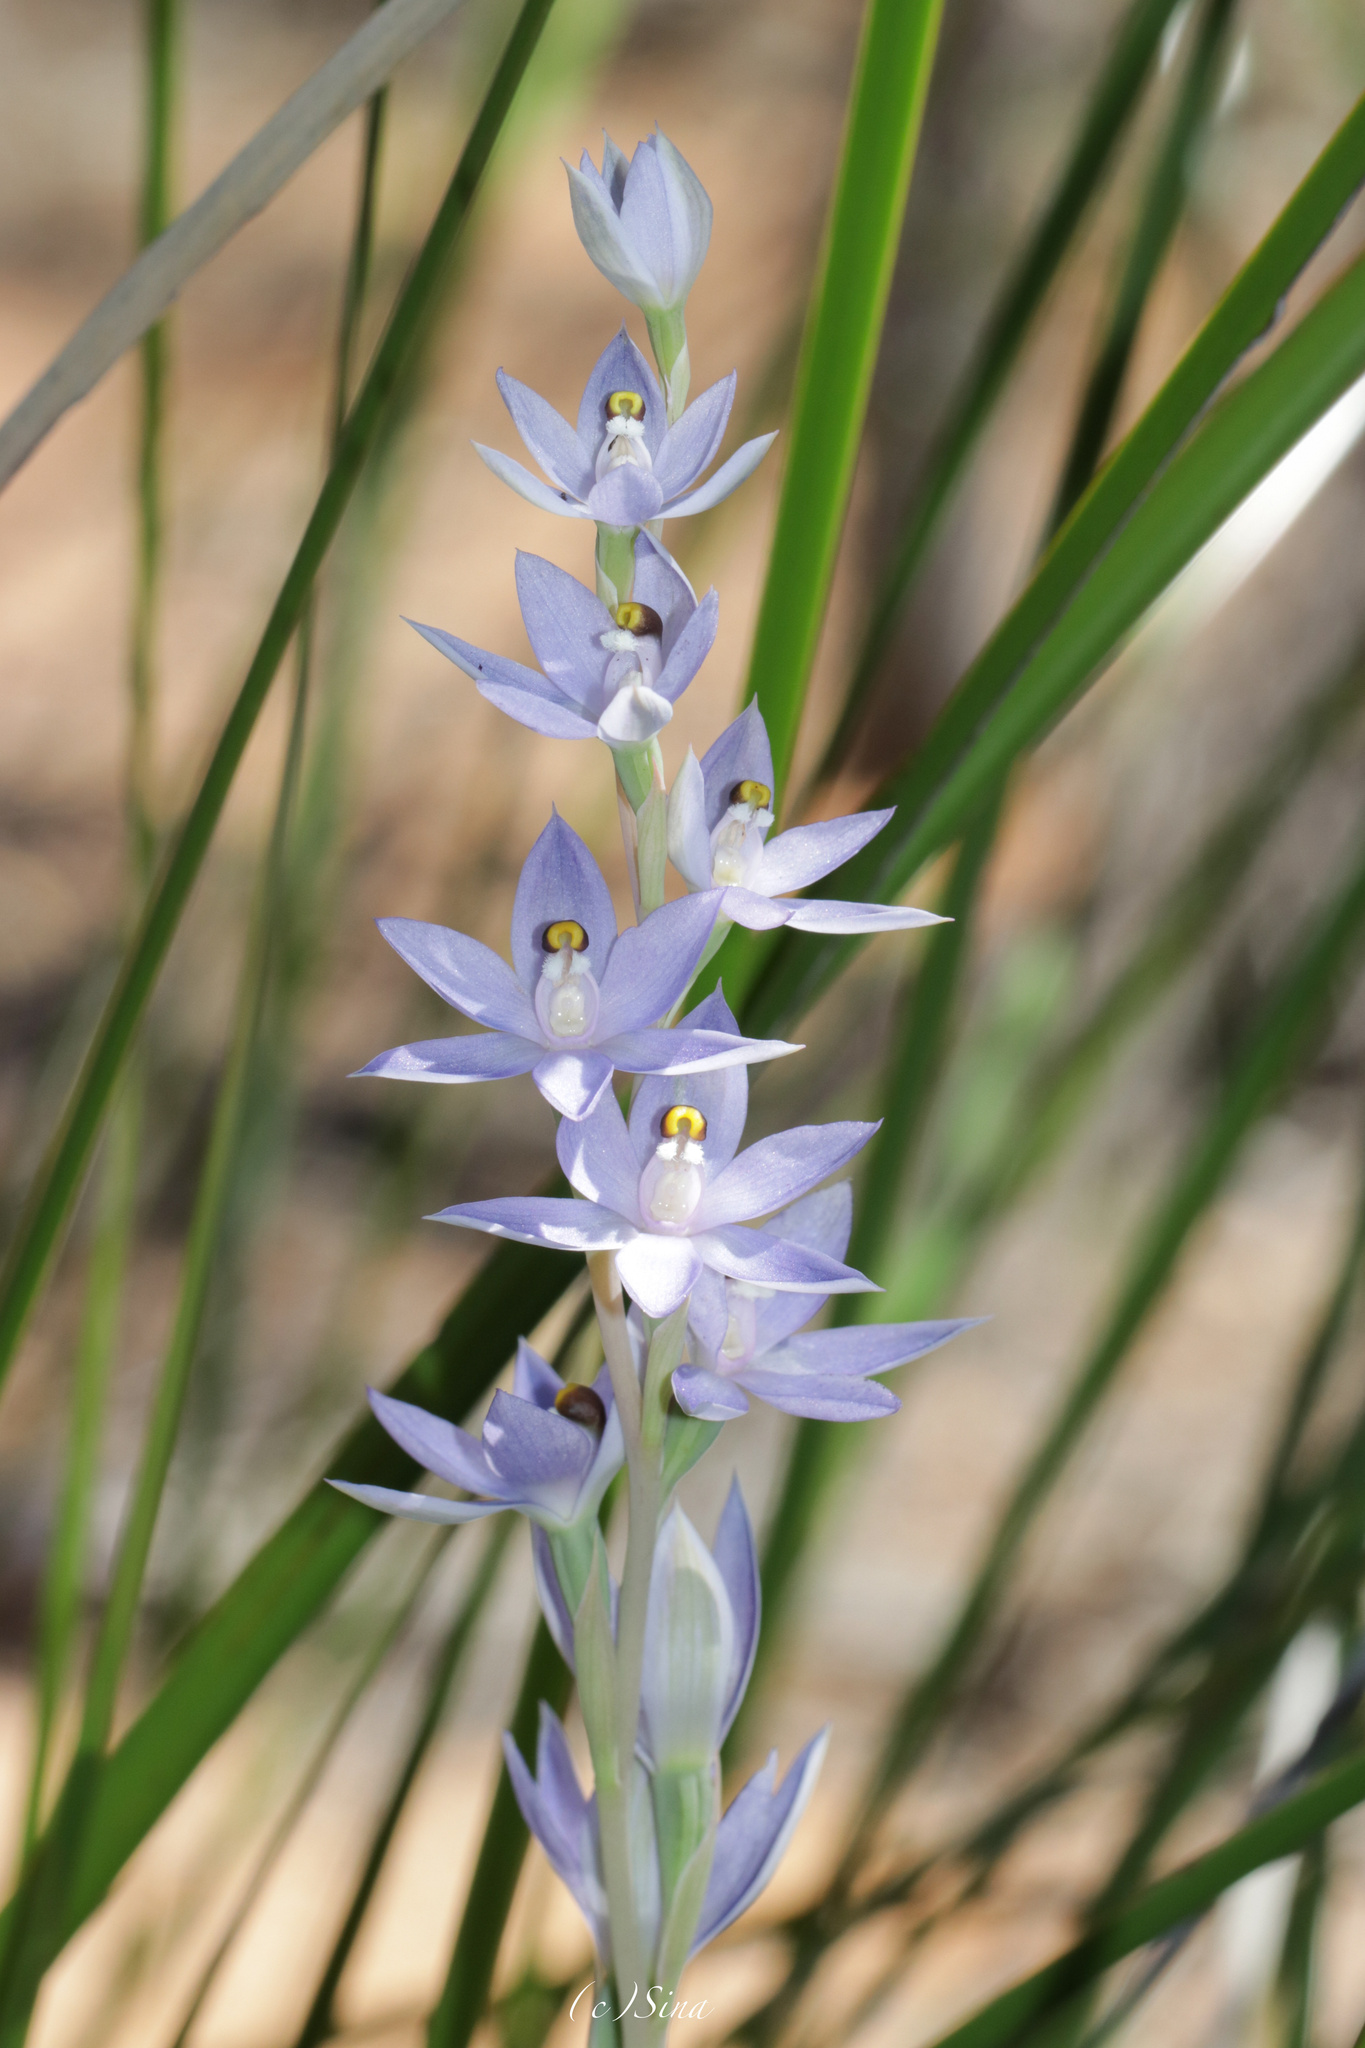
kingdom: Plantae
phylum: Tracheophyta
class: Liliopsida
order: Asparagales
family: Orchidaceae
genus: Thelymitra
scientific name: Thelymitra petrophila
